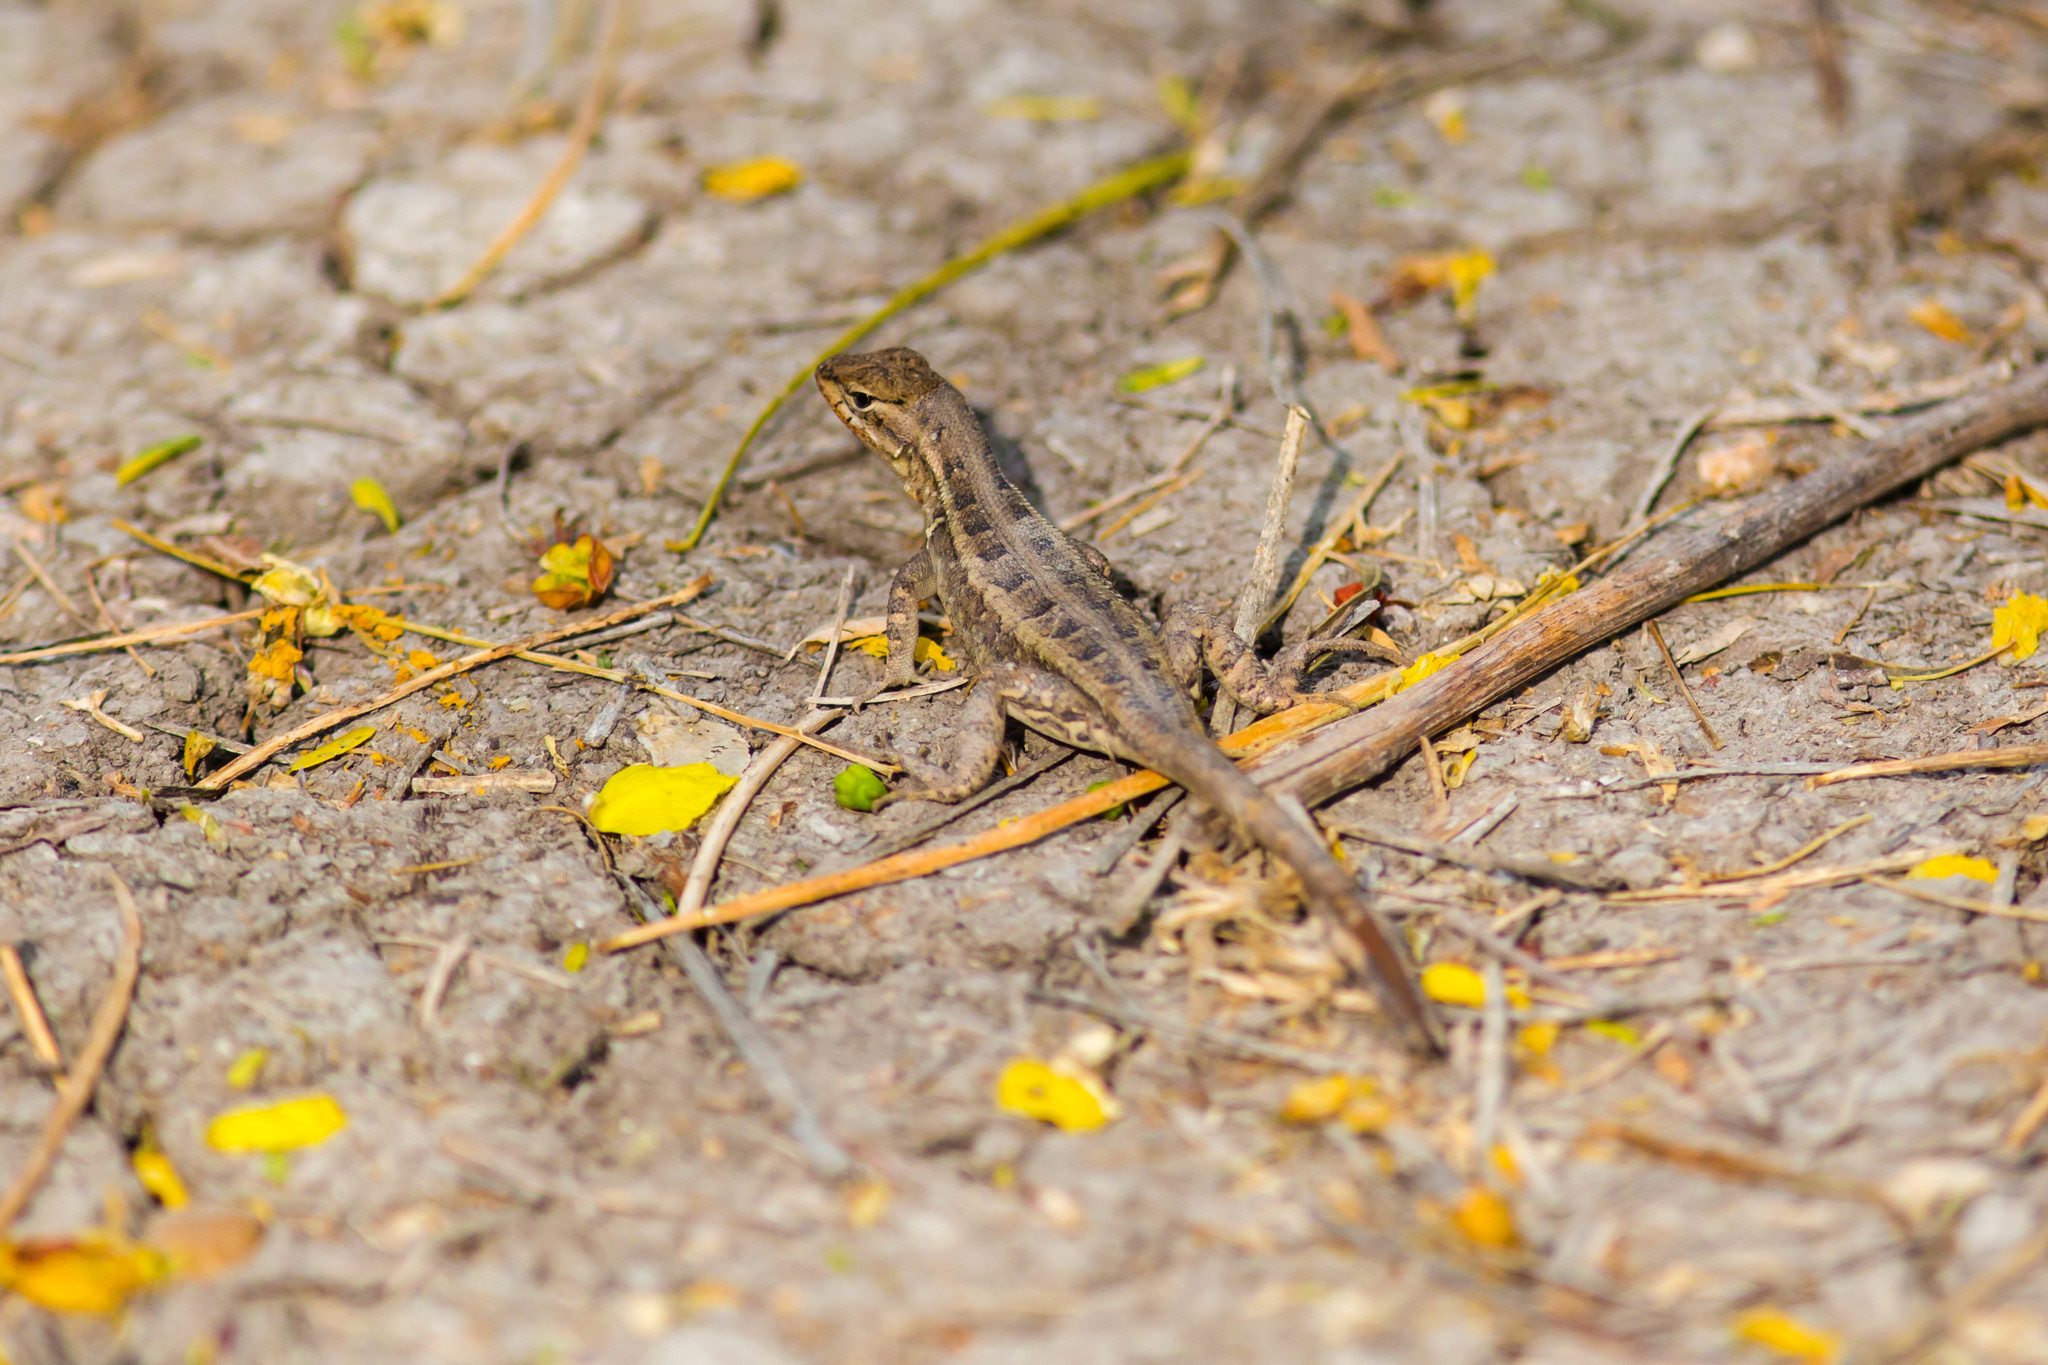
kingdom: Animalia
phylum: Chordata
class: Squamata
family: Phrynosomatidae
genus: Sceloporus
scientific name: Sceloporus variabilis
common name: Rosebelly lizard
